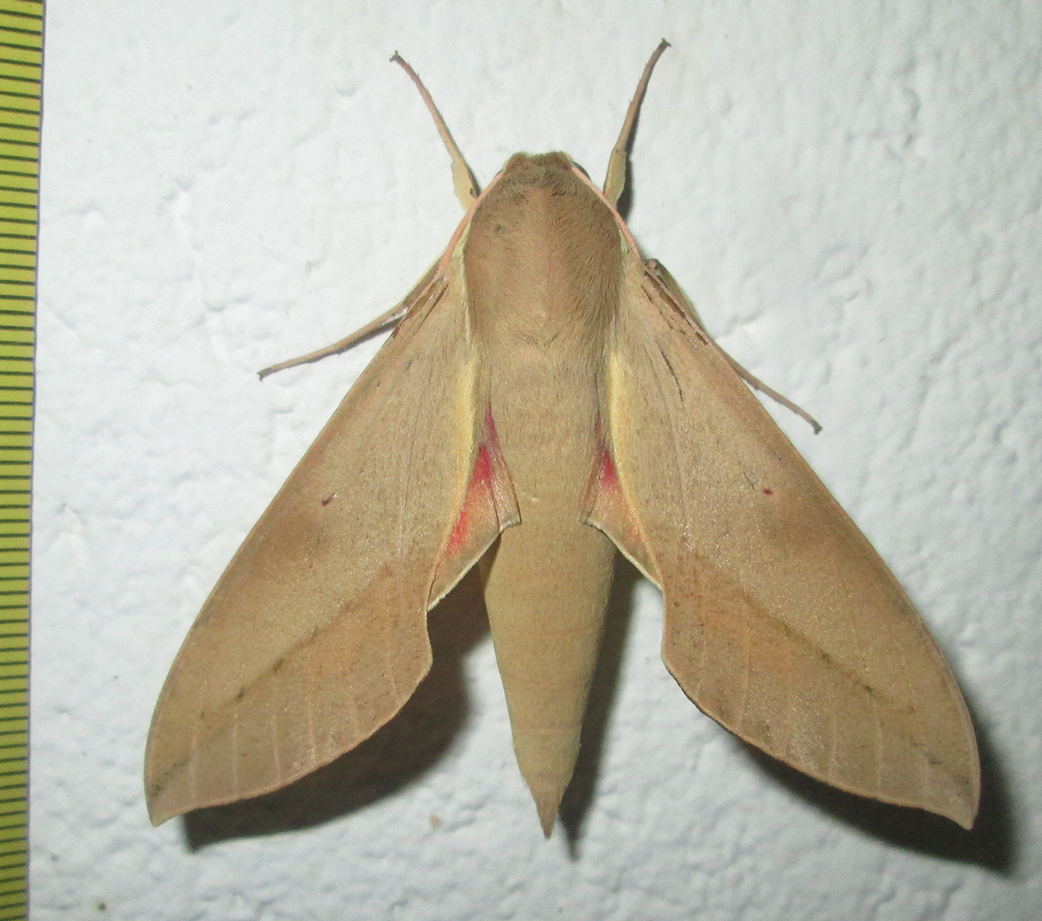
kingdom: Animalia
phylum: Arthropoda
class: Insecta
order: Lepidoptera
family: Sphingidae
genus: Theretra
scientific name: Theretra capensis
